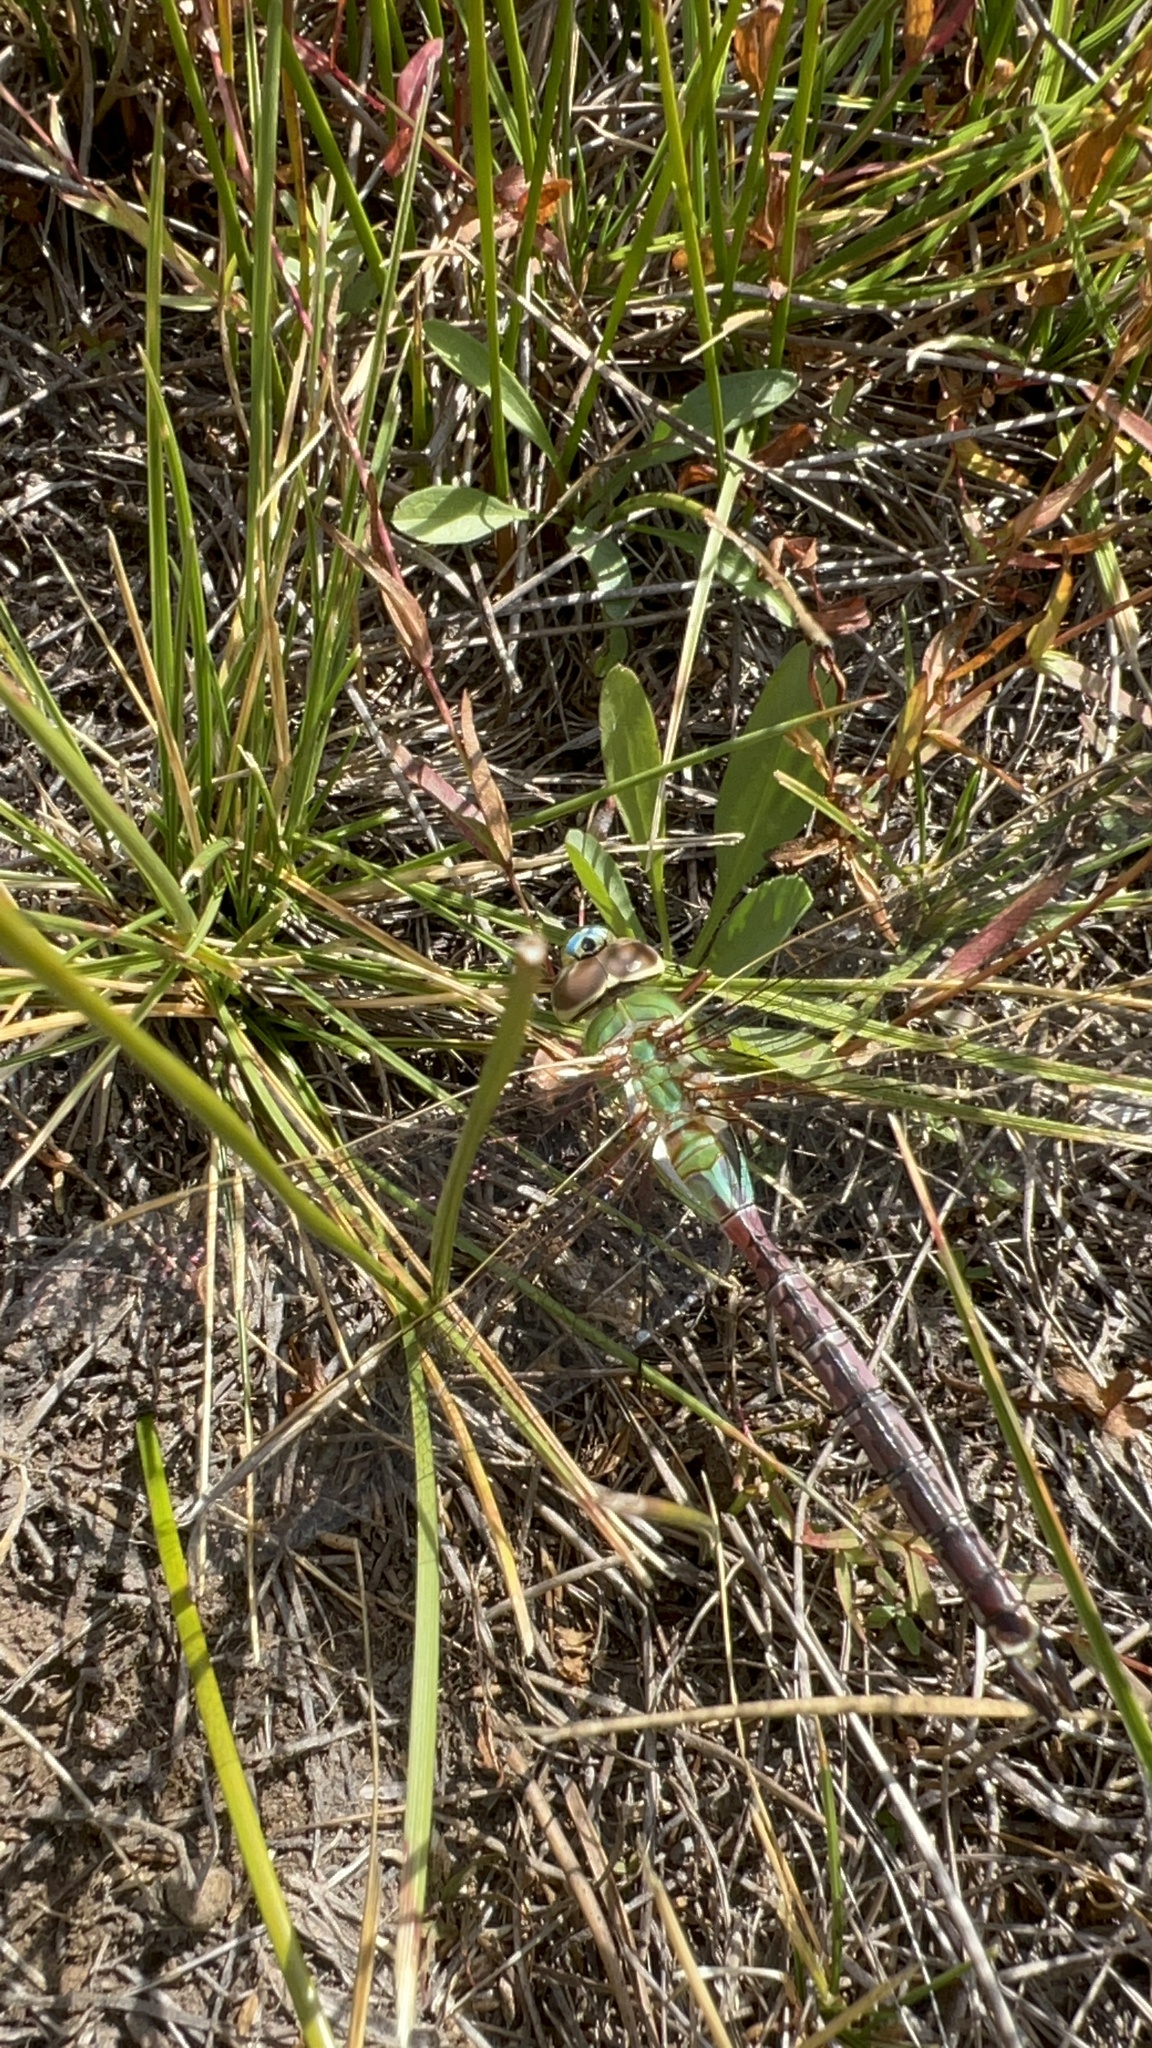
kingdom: Animalia
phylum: Arthropoda
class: Insecta
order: Odonata
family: Aeshnidae
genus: Anax
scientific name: Anax junius
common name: Common green darner
